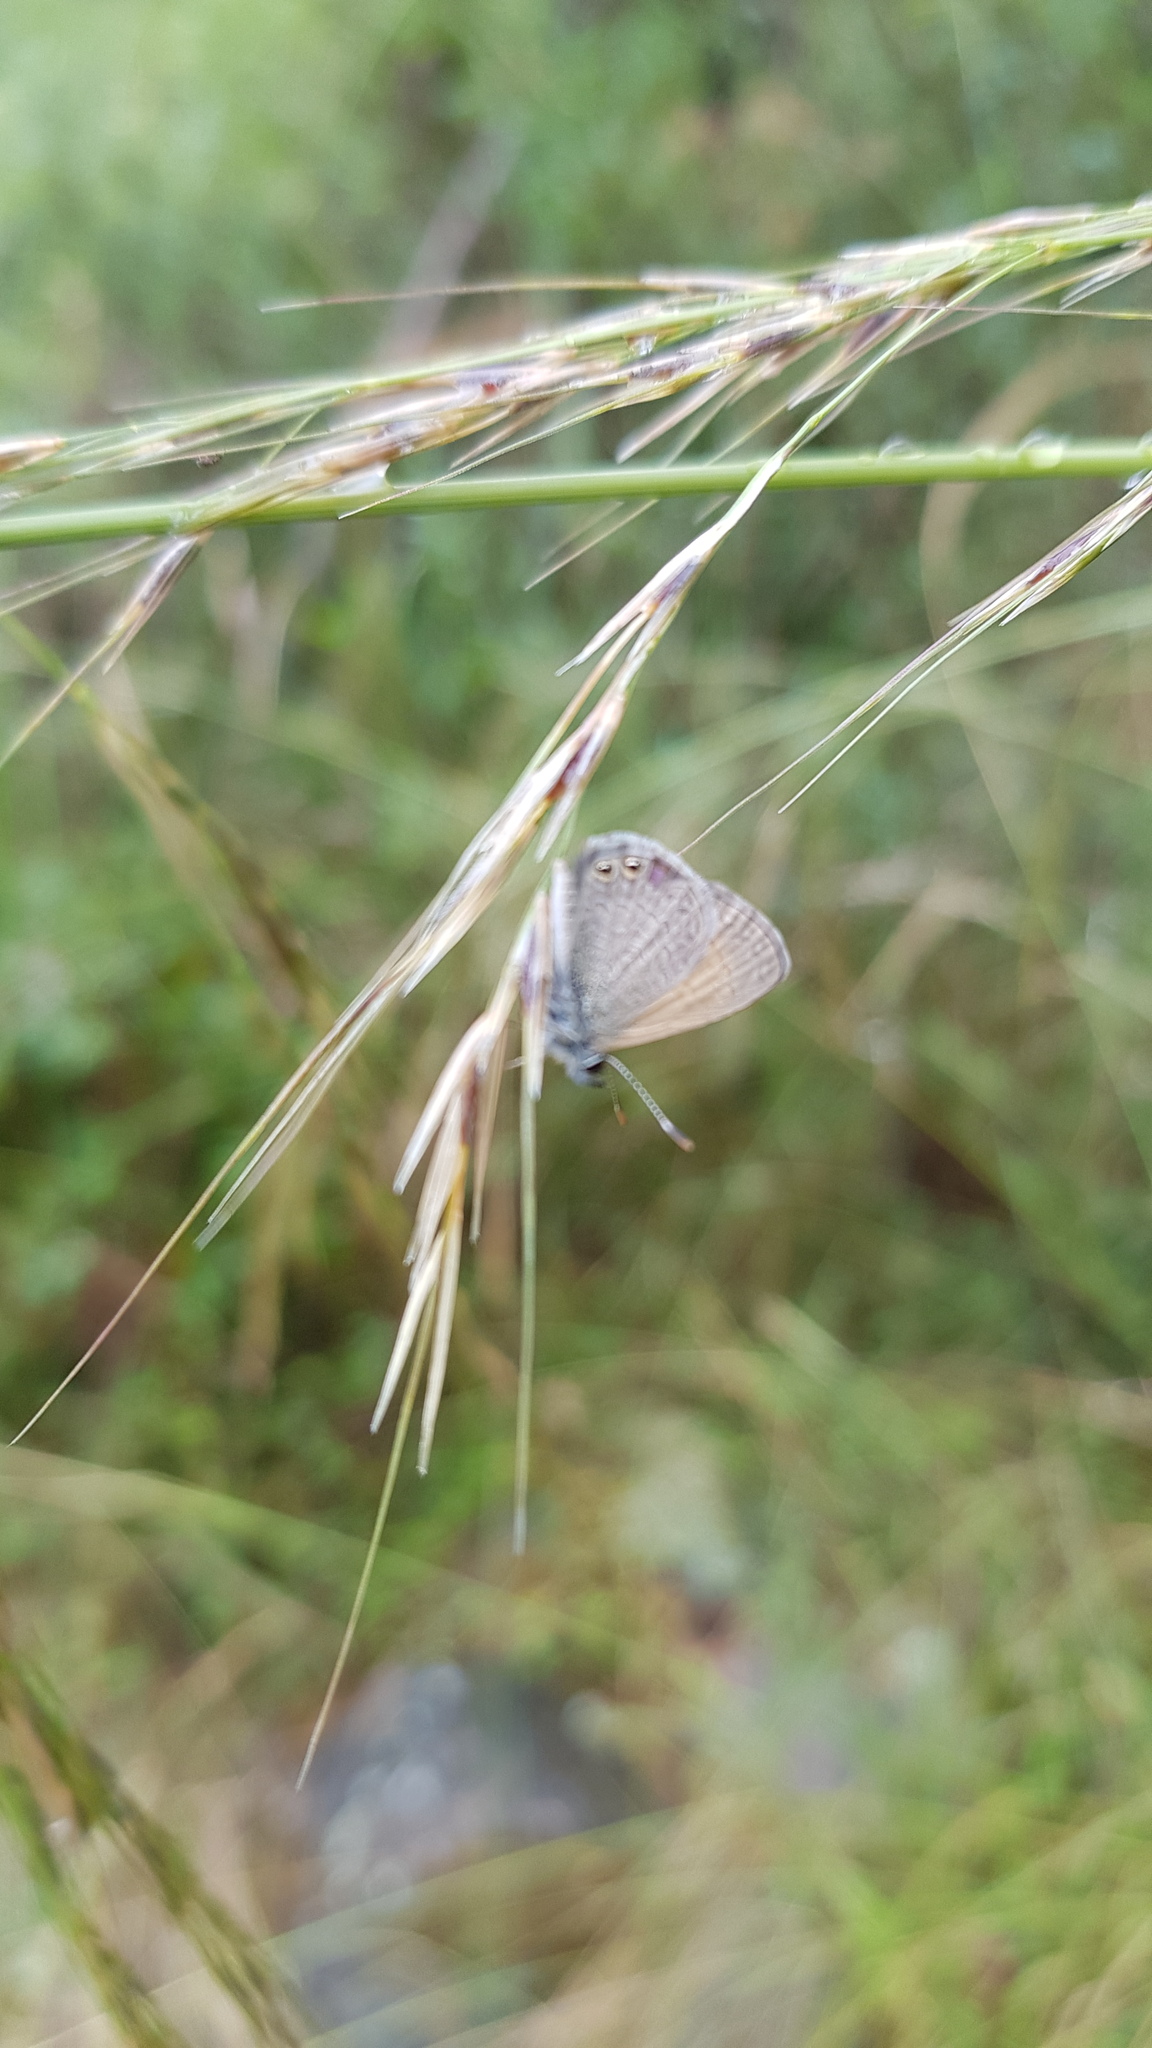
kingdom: Animalia
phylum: Arthropoda
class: Insecta
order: Lepidoptera
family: Lycaenidae
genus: Nacaduba
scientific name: Nacaduba biocellata
